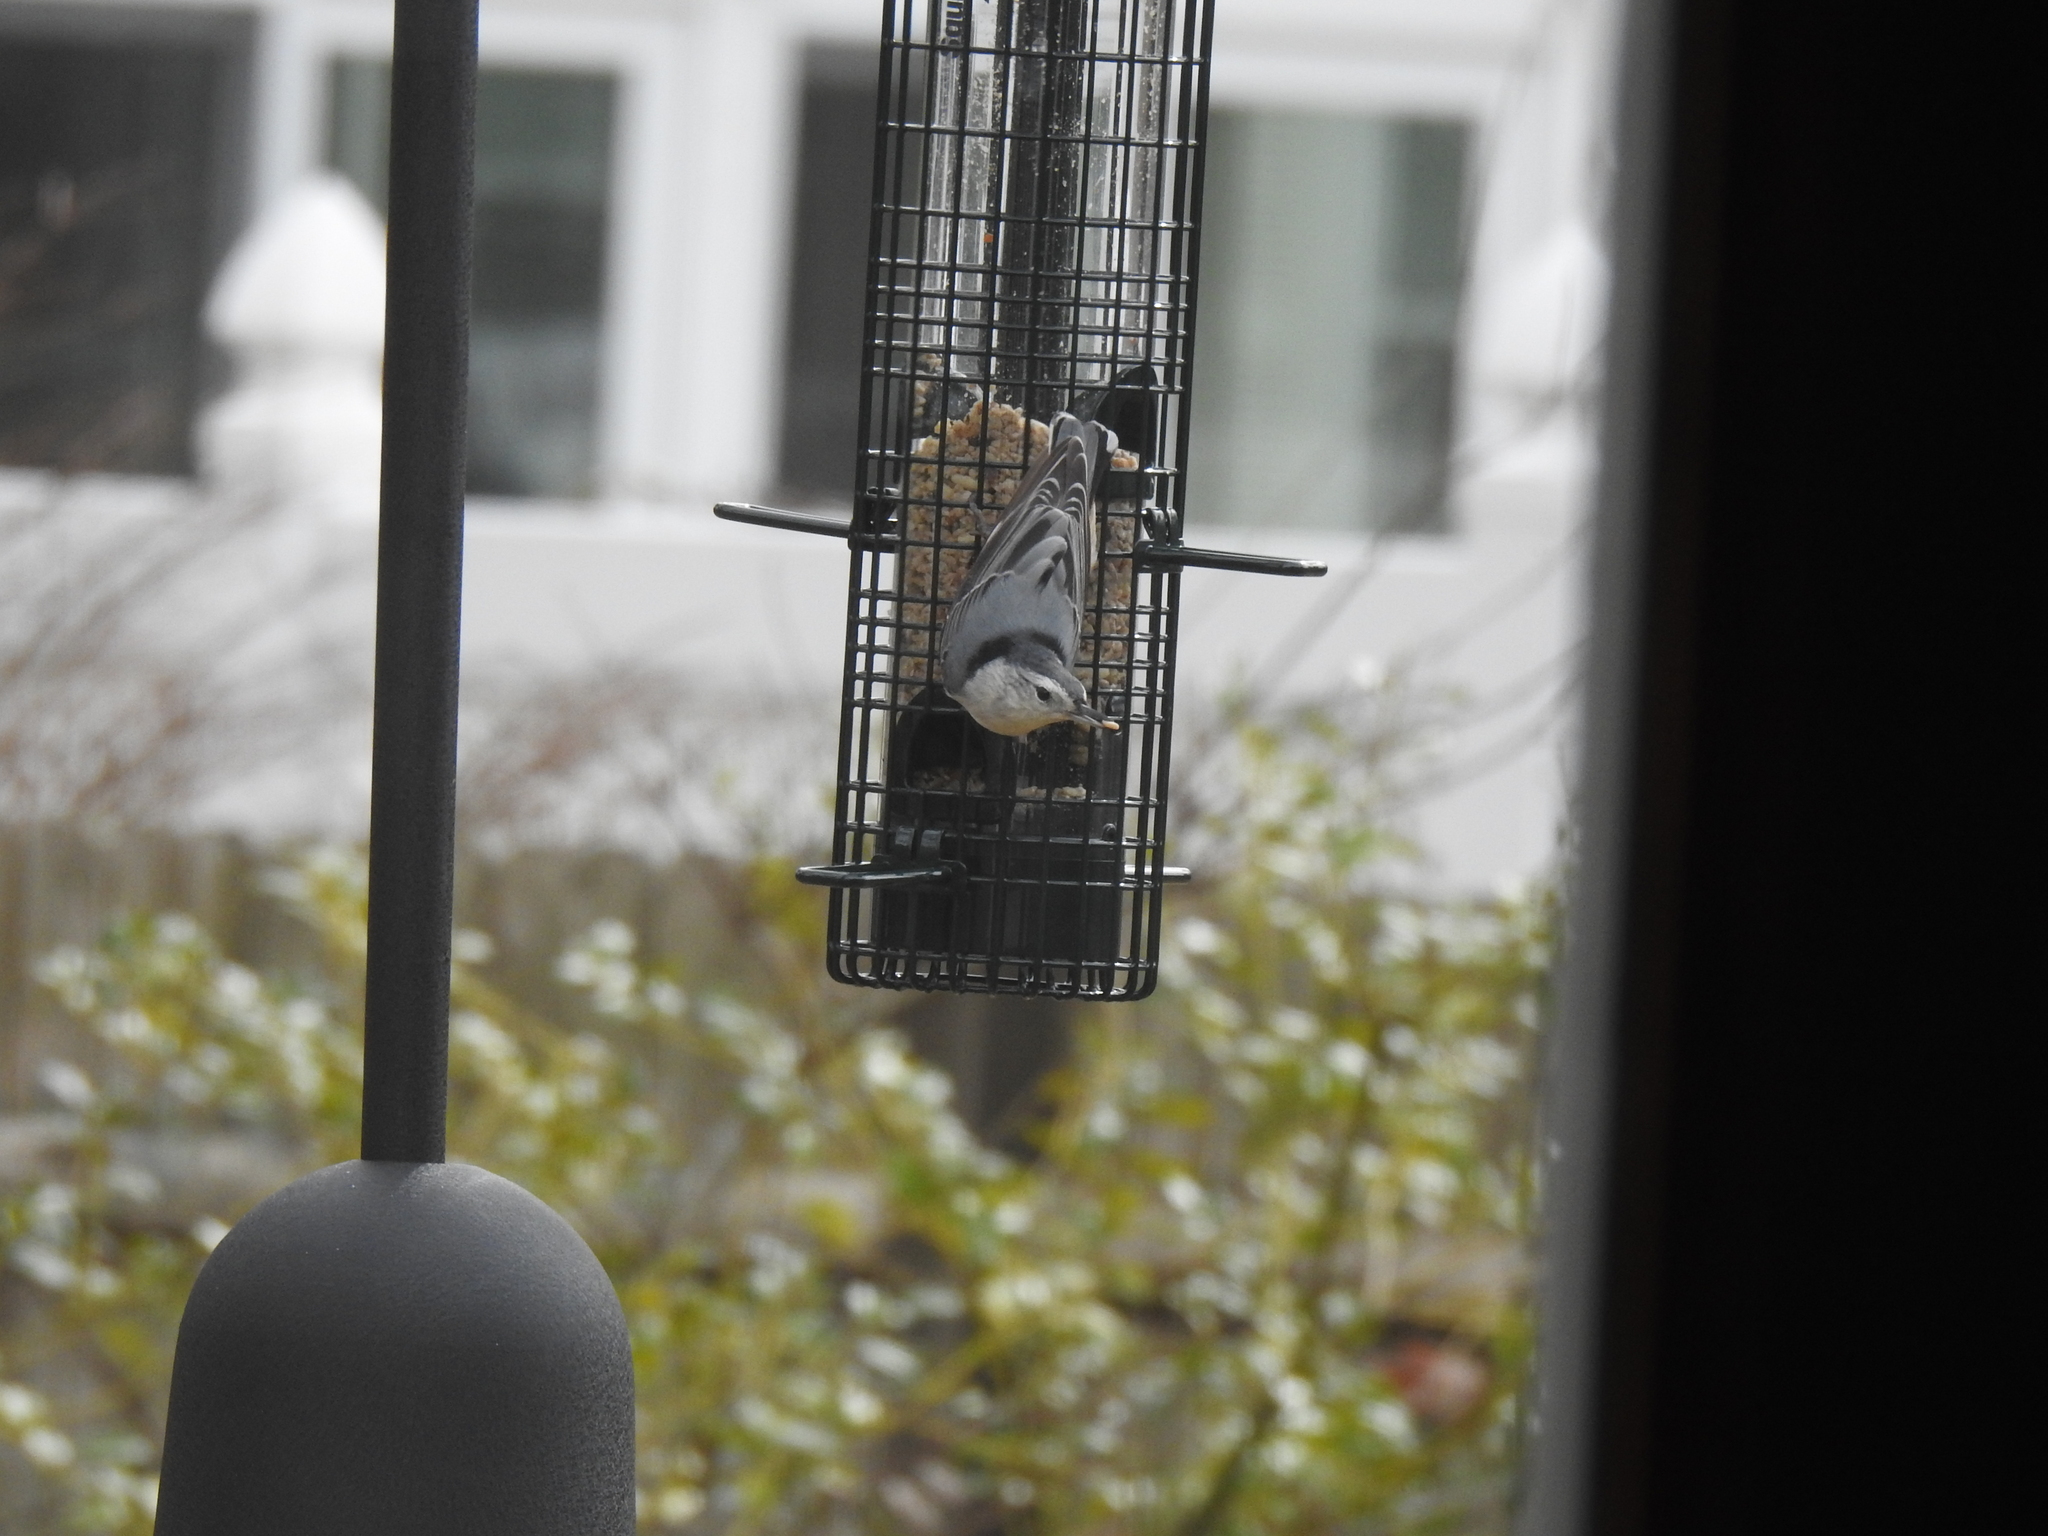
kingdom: Animalia
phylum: Chordata
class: Aves
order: Passeriformes
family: Sittidae
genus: Sitta
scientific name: Sitta carolinensis
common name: White-breasted nuthatch
